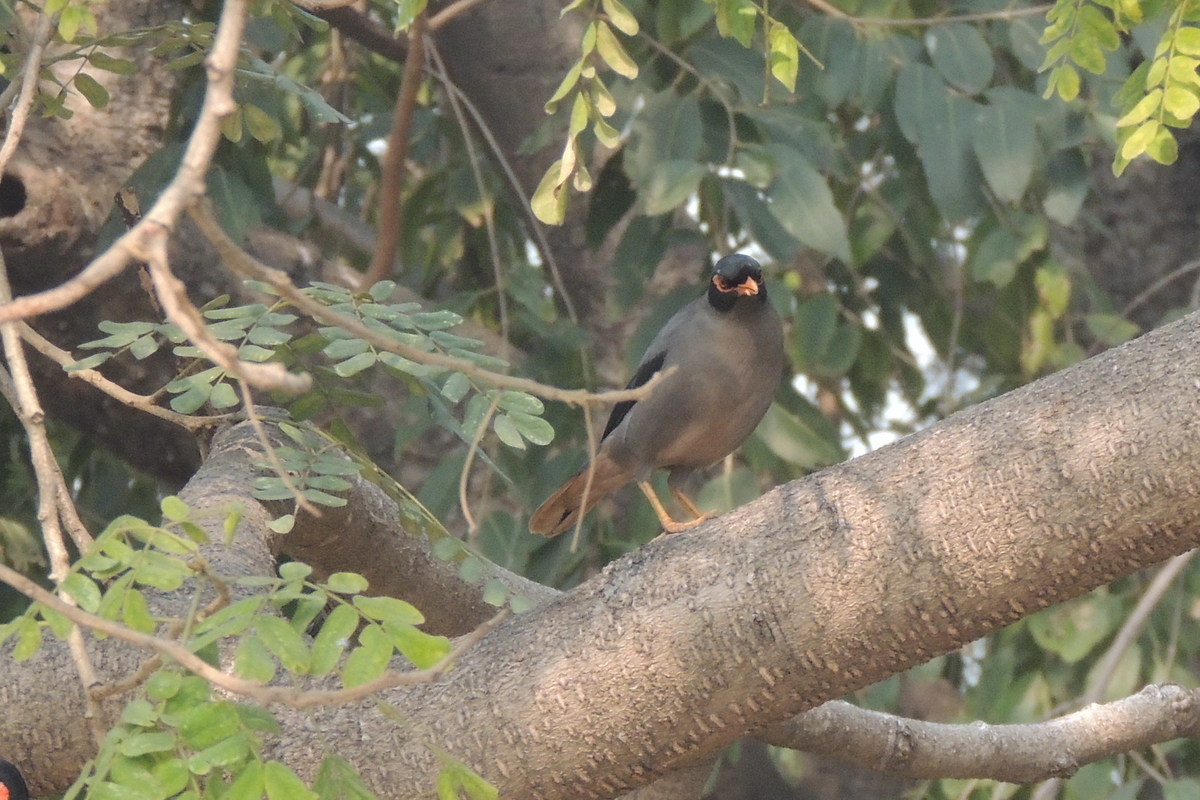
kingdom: Animalia
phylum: Chordata
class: Aves
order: Passeriformes
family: Sturnidae
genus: Acridotheres
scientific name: Acridotheres ginginianus
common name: Bank myna
